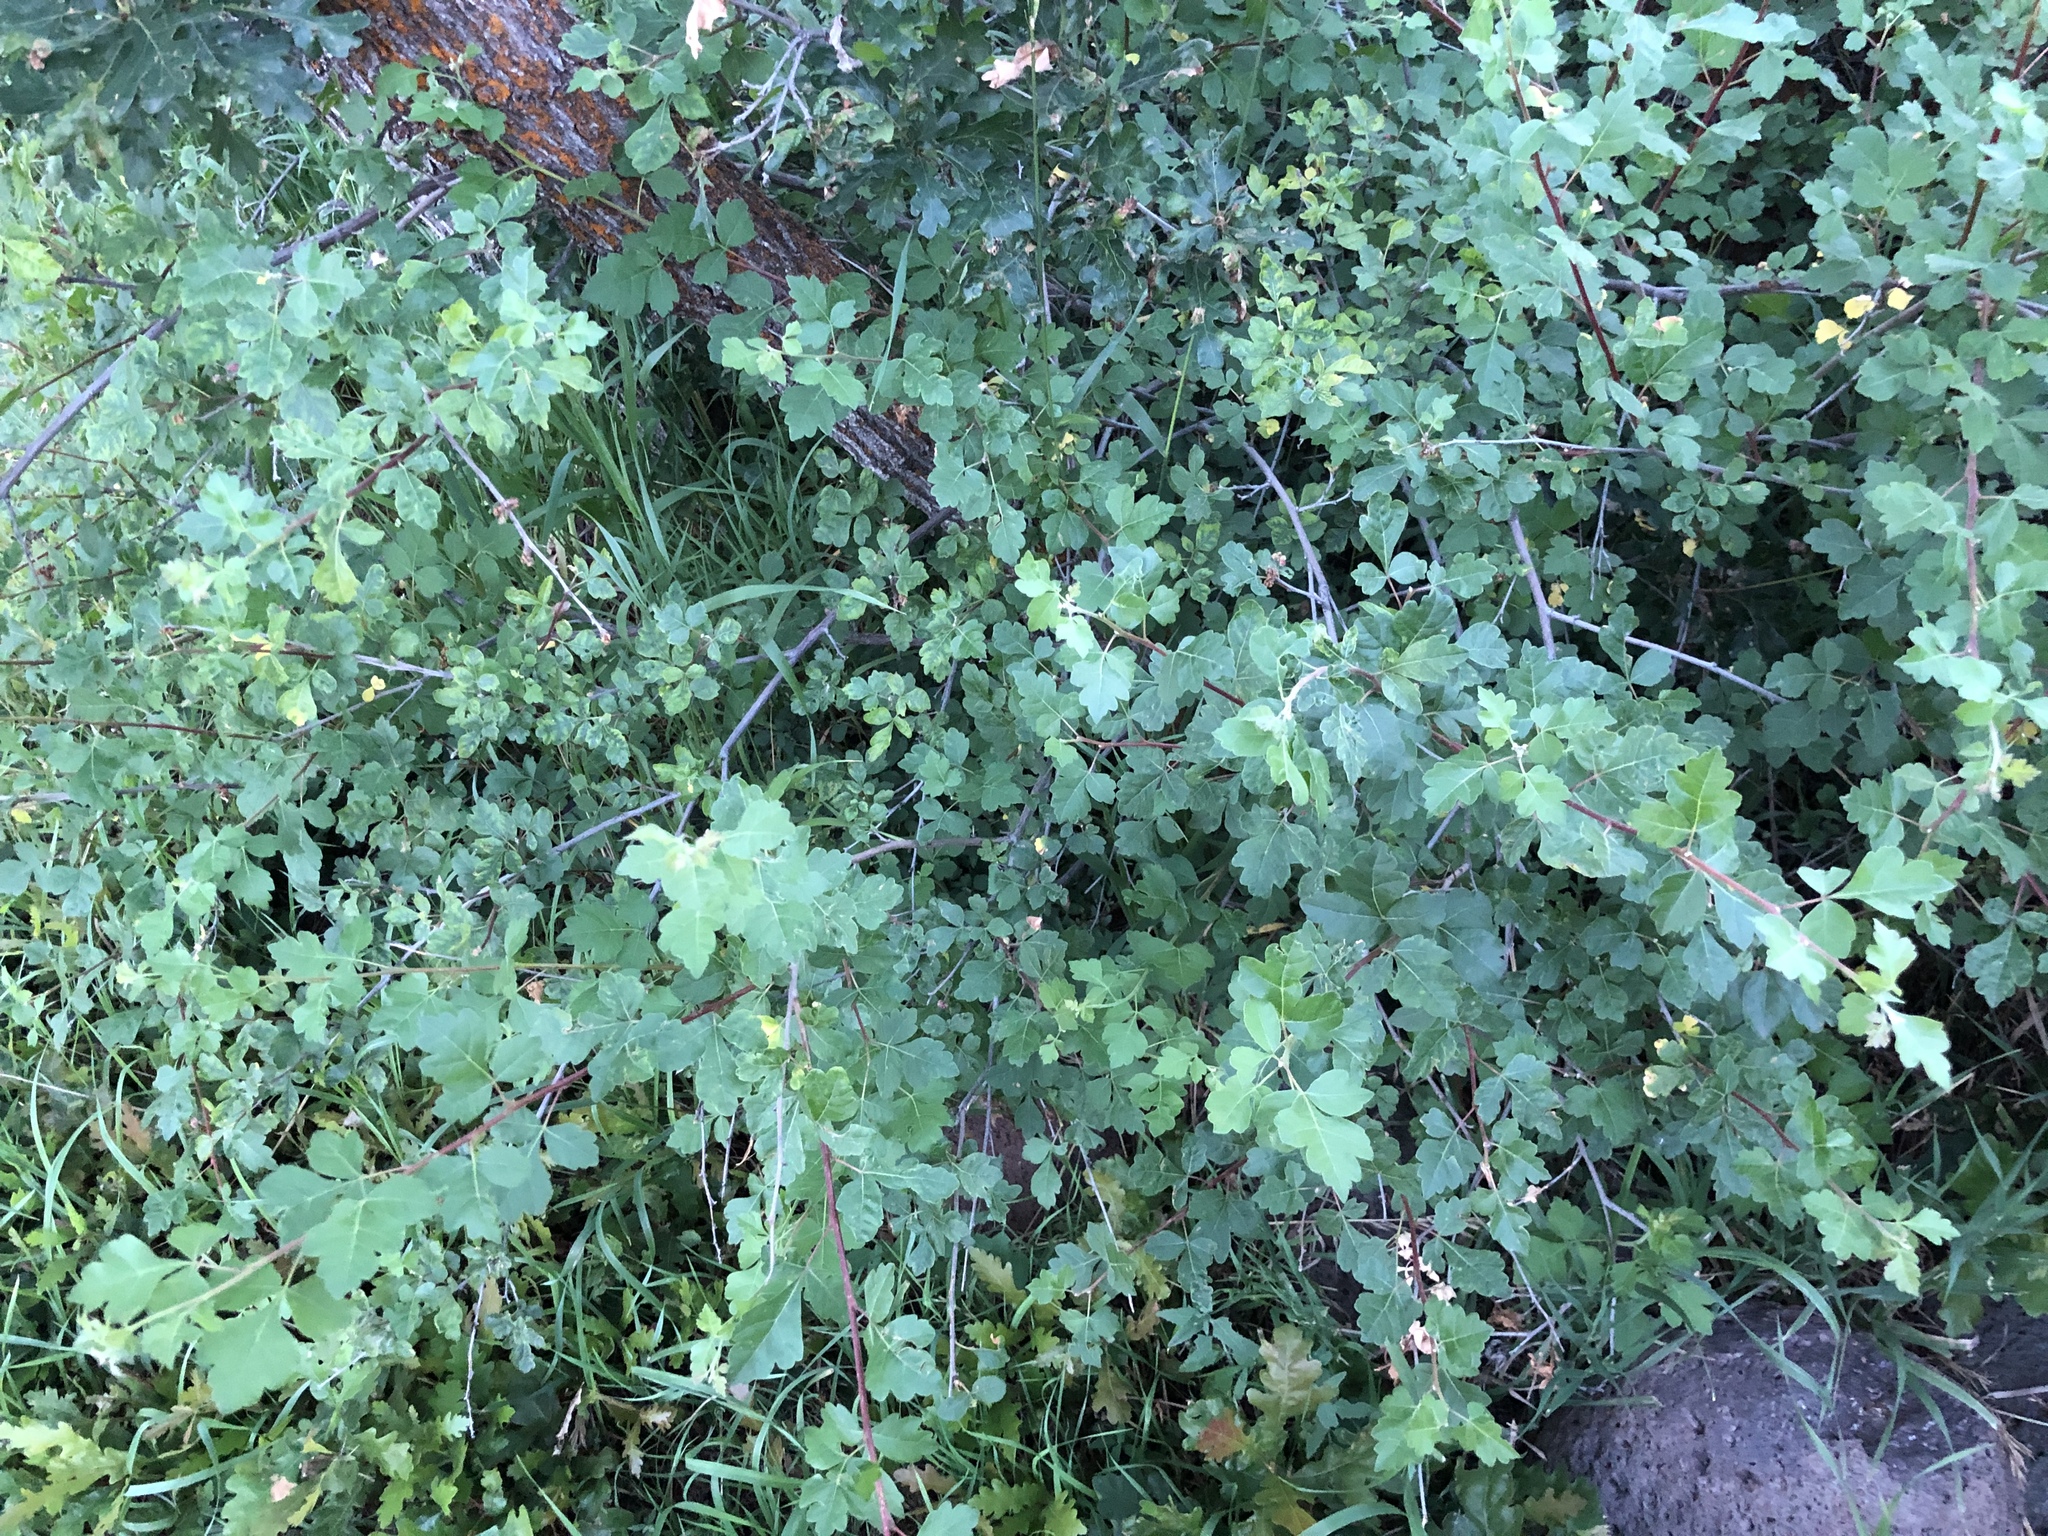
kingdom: Plantae
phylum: Tracheophyta
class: Magnoliopsida
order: Sapindales
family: Anacardiaceae
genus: Rhus
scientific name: Rhus aromatica
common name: Aromatic sumac
